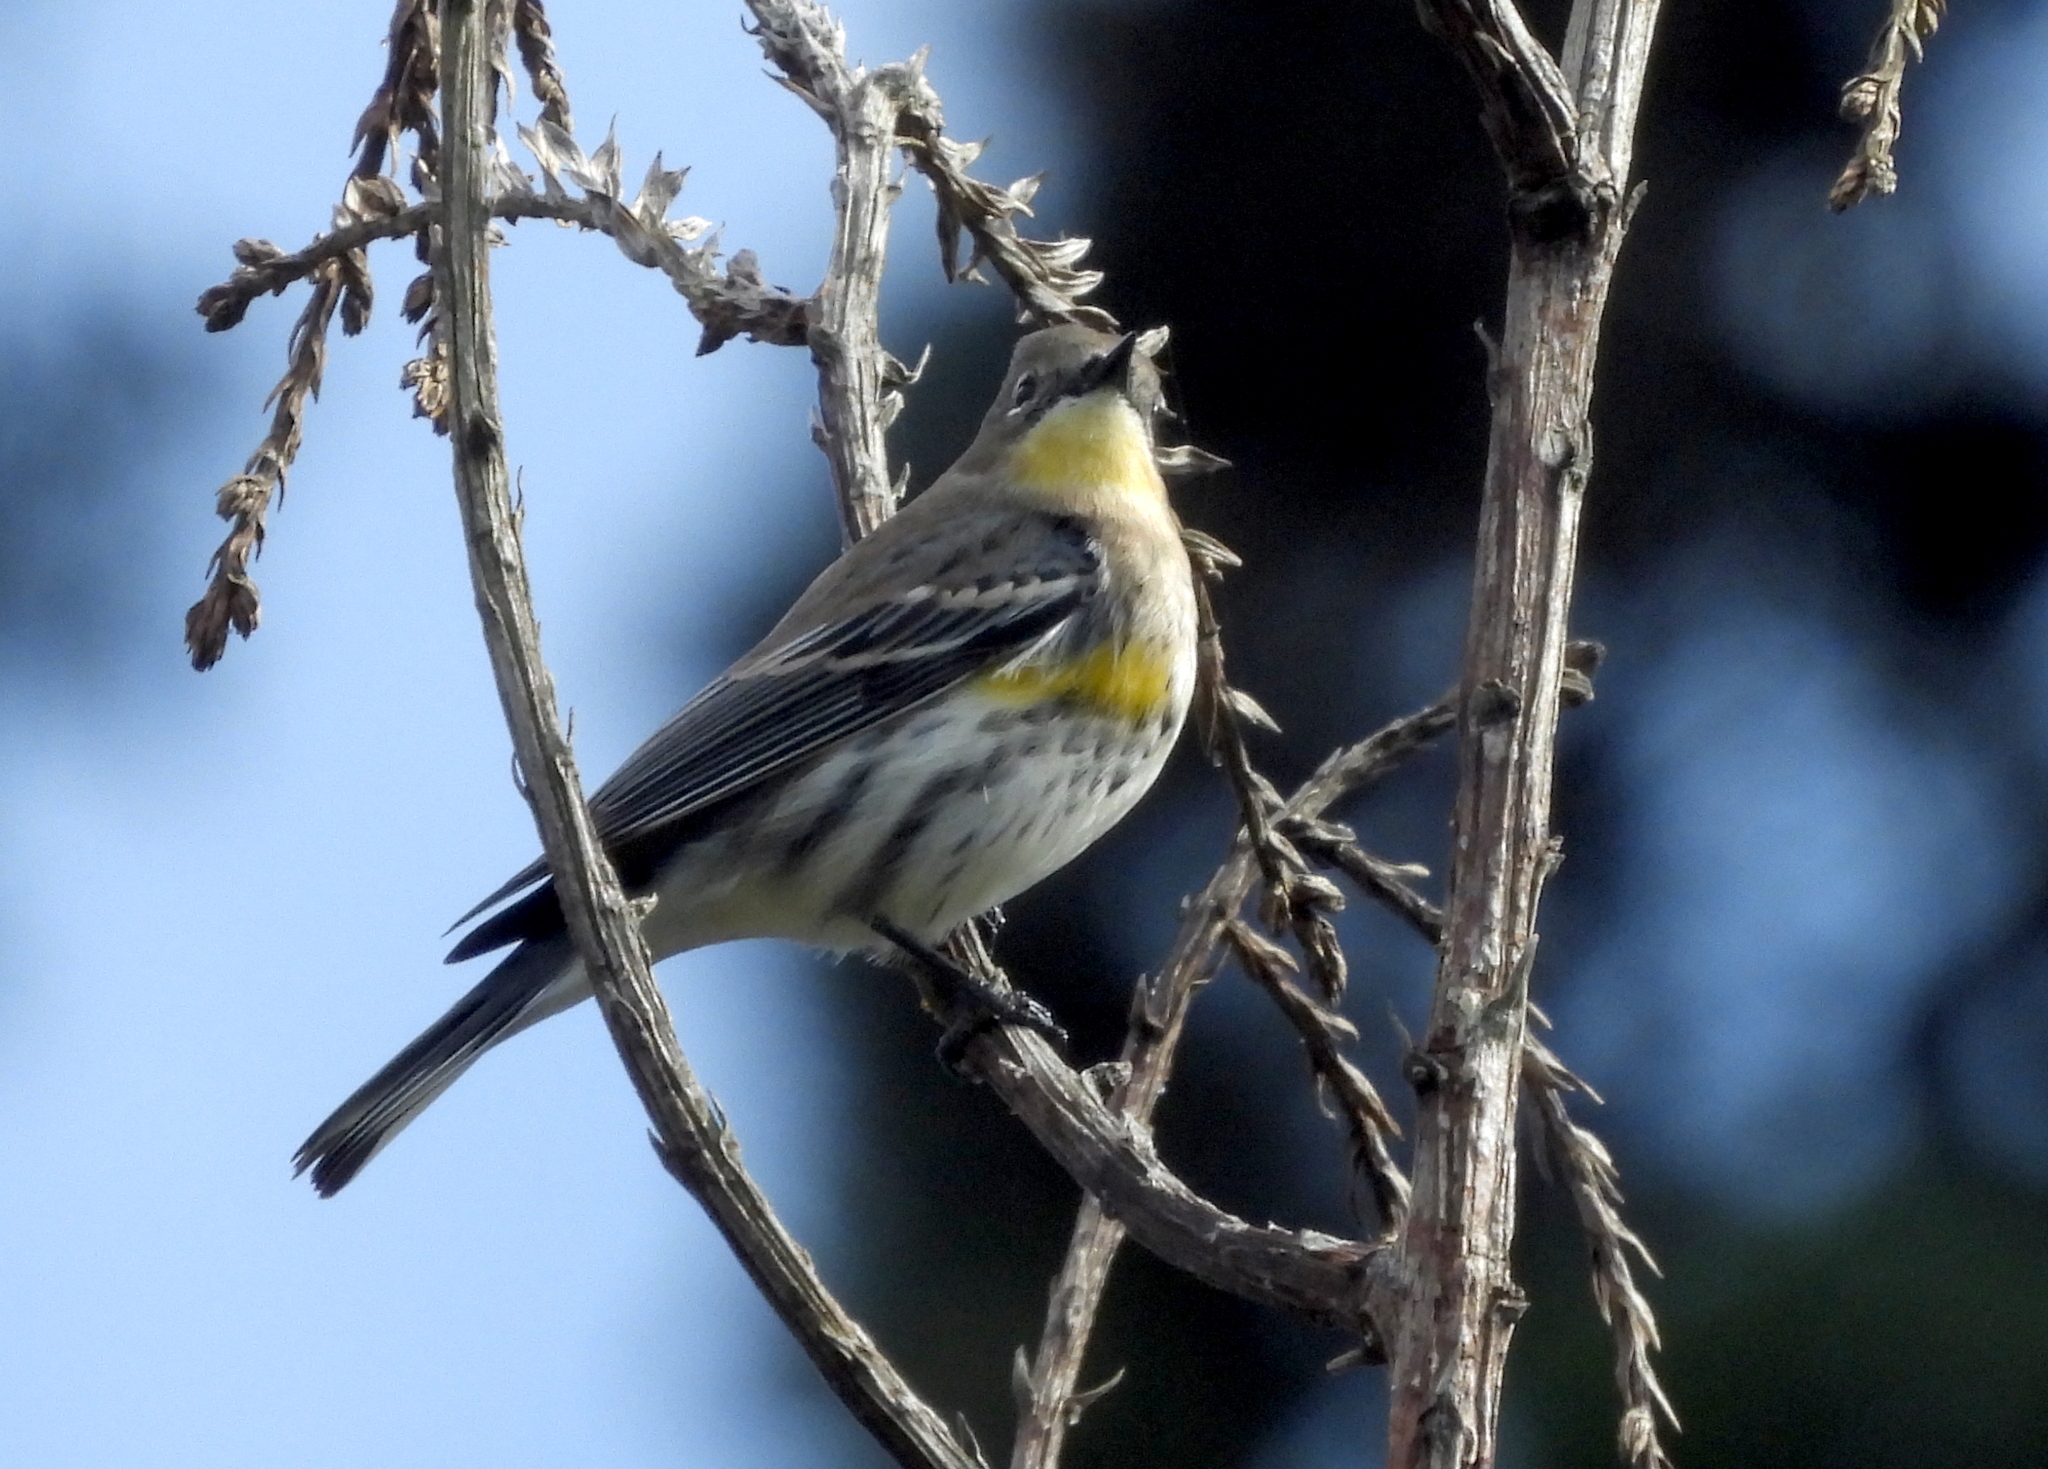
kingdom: Animalia
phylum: Chordata
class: Aves
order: Passeriformes
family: Parulidae
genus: Setophaga
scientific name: Setophaga
